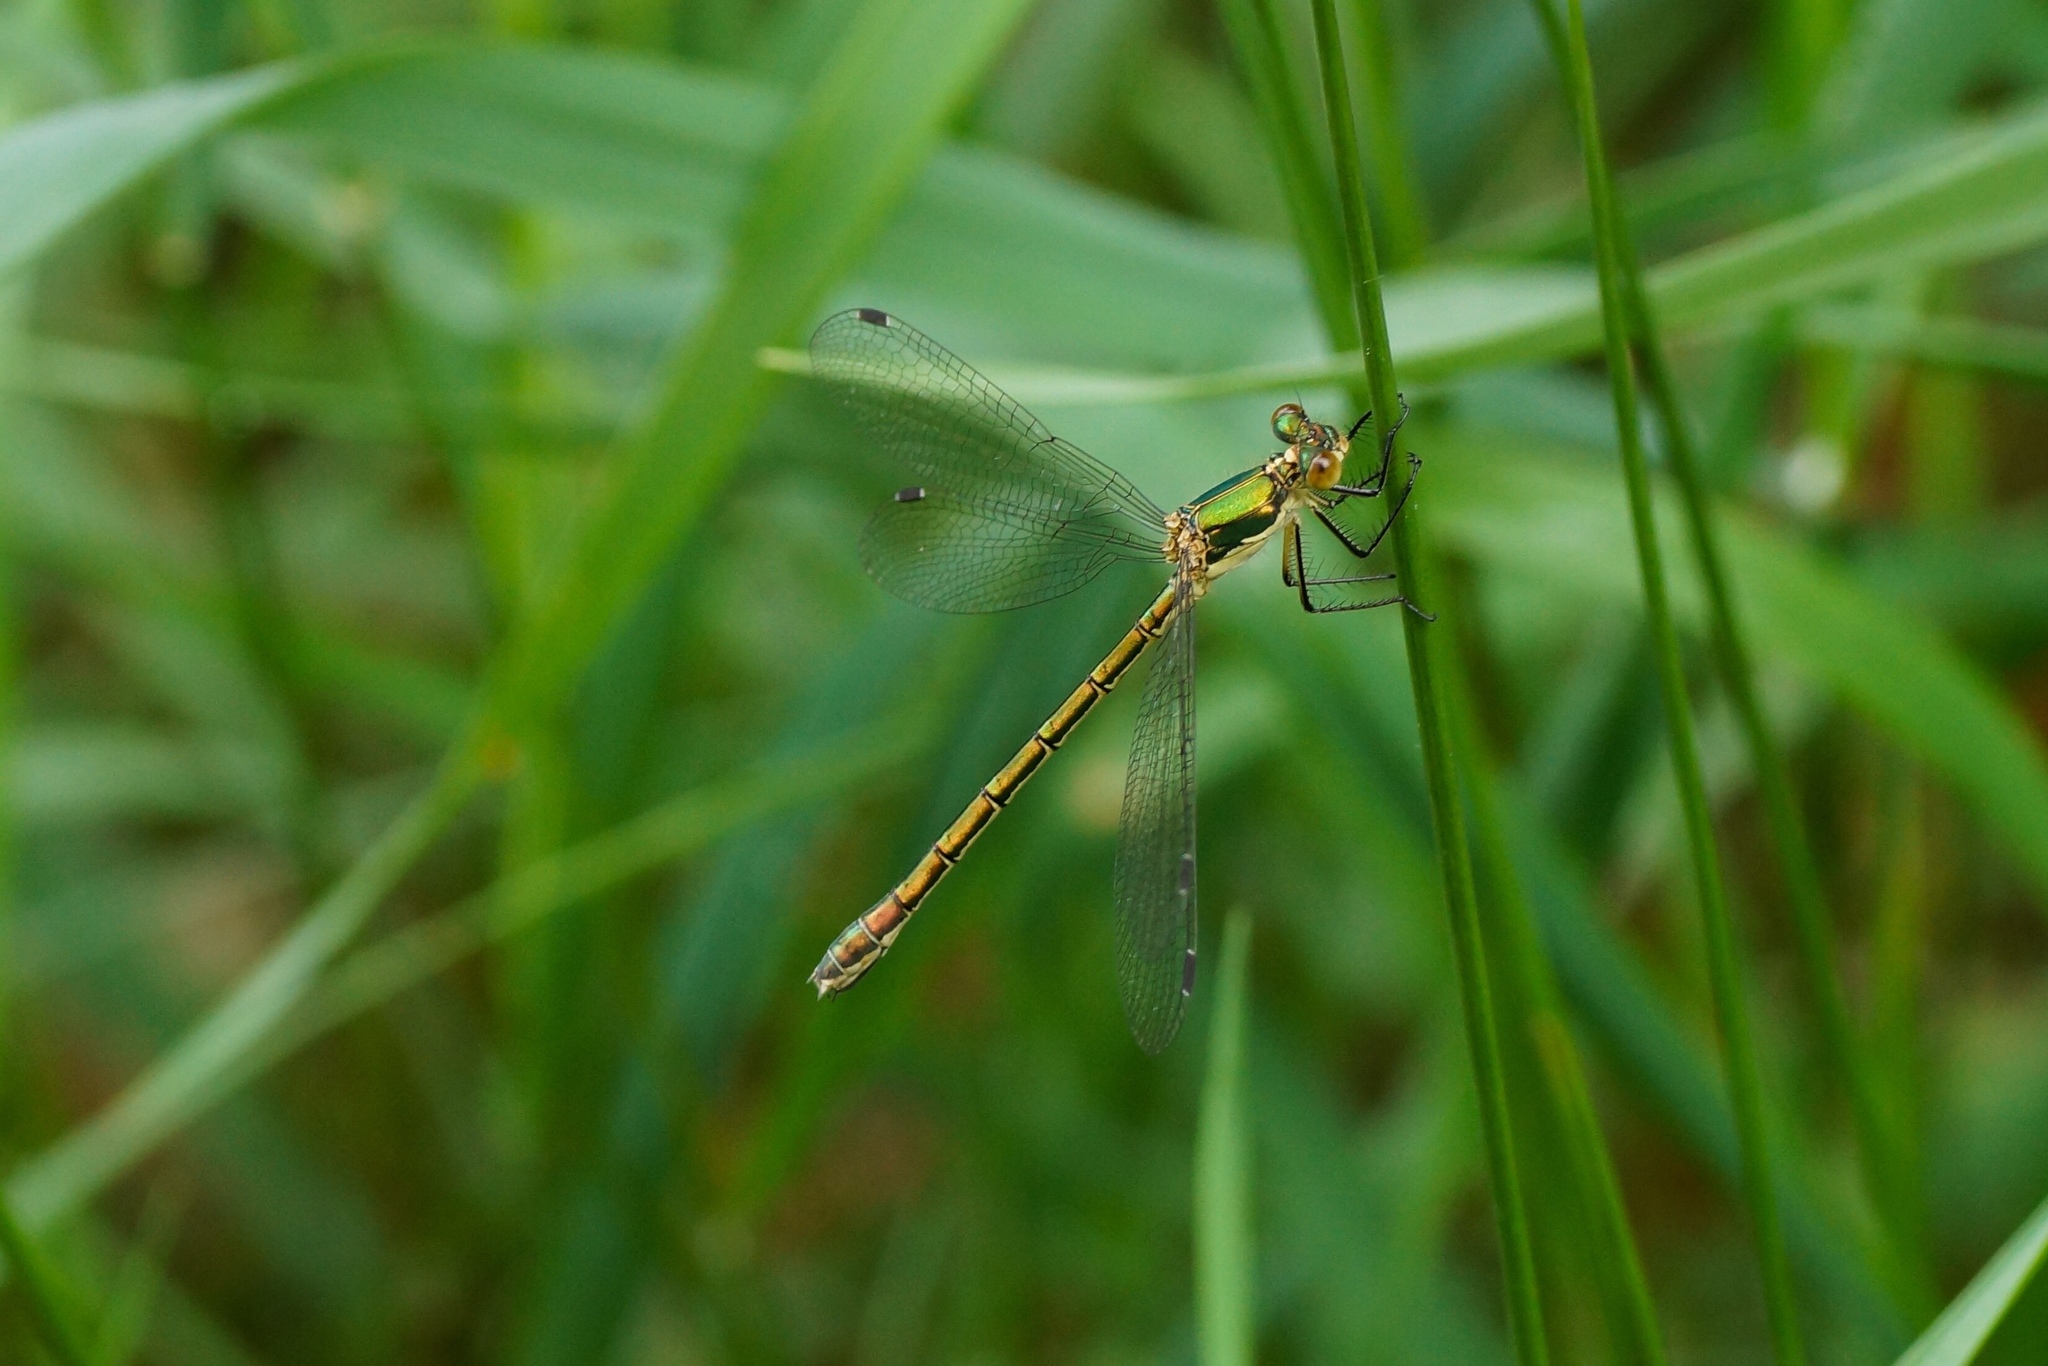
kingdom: Animalia
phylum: Arthropoda
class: Insecta
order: Odonata
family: Lestidae
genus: Lestes
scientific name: Lestes dryas
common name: Scarce emerald damselfly
